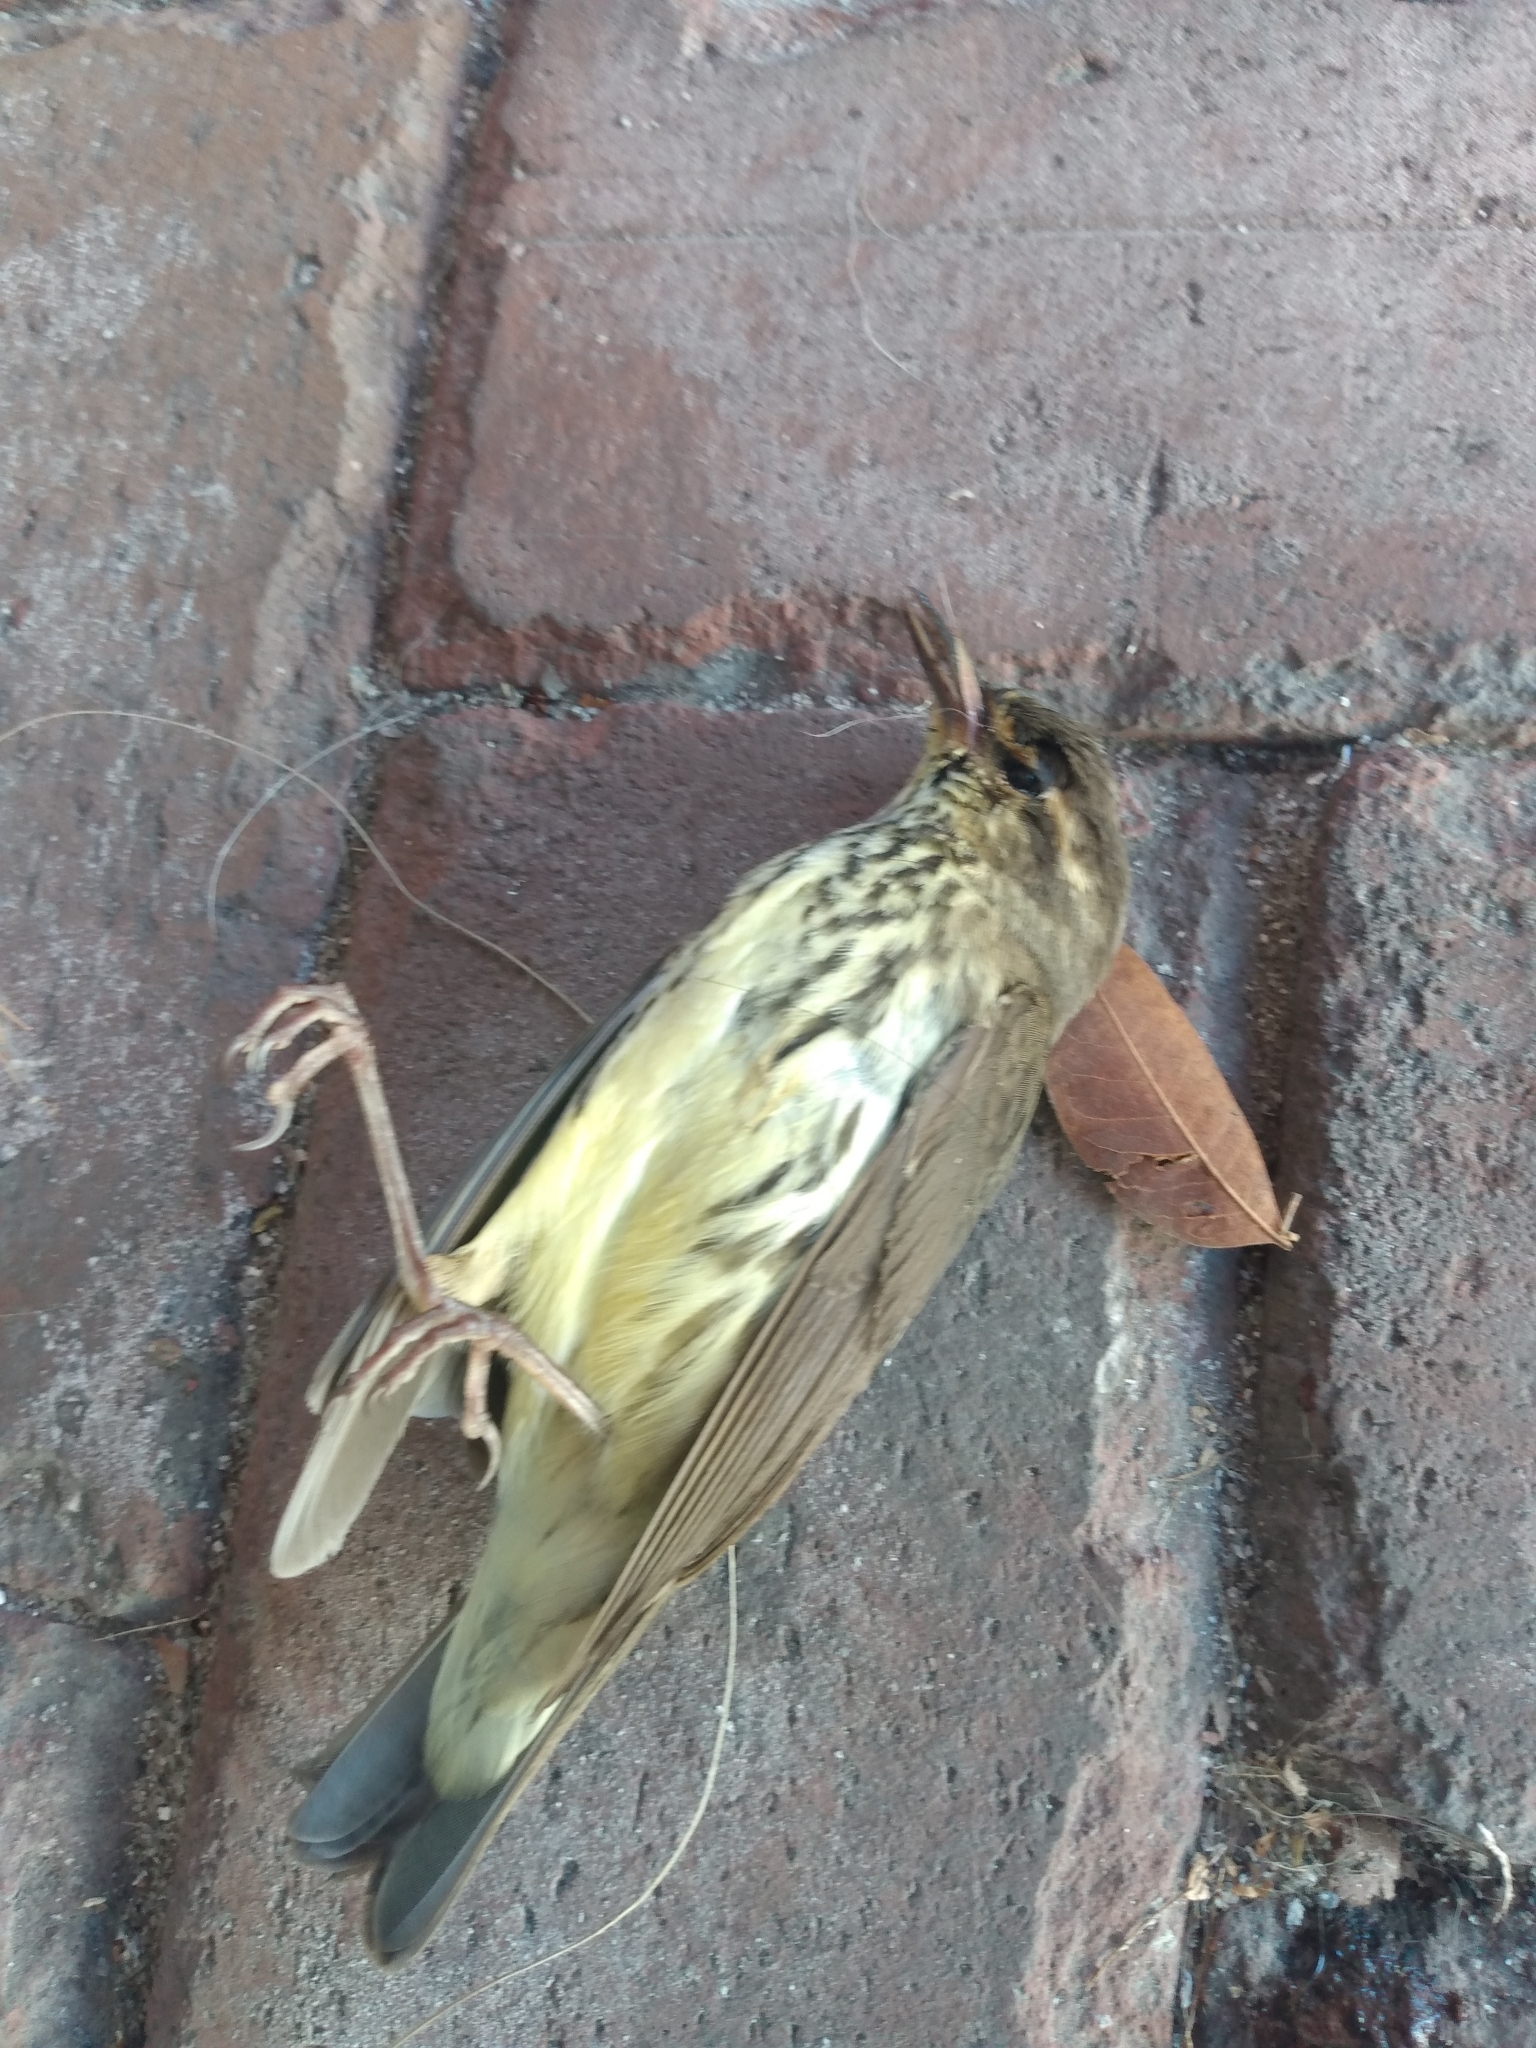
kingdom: Animalia
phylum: Chordata
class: Aves
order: Passeriformes
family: Parulidae
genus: Parkesia
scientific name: Parkesia noveboracensis
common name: Northern waterthrush
